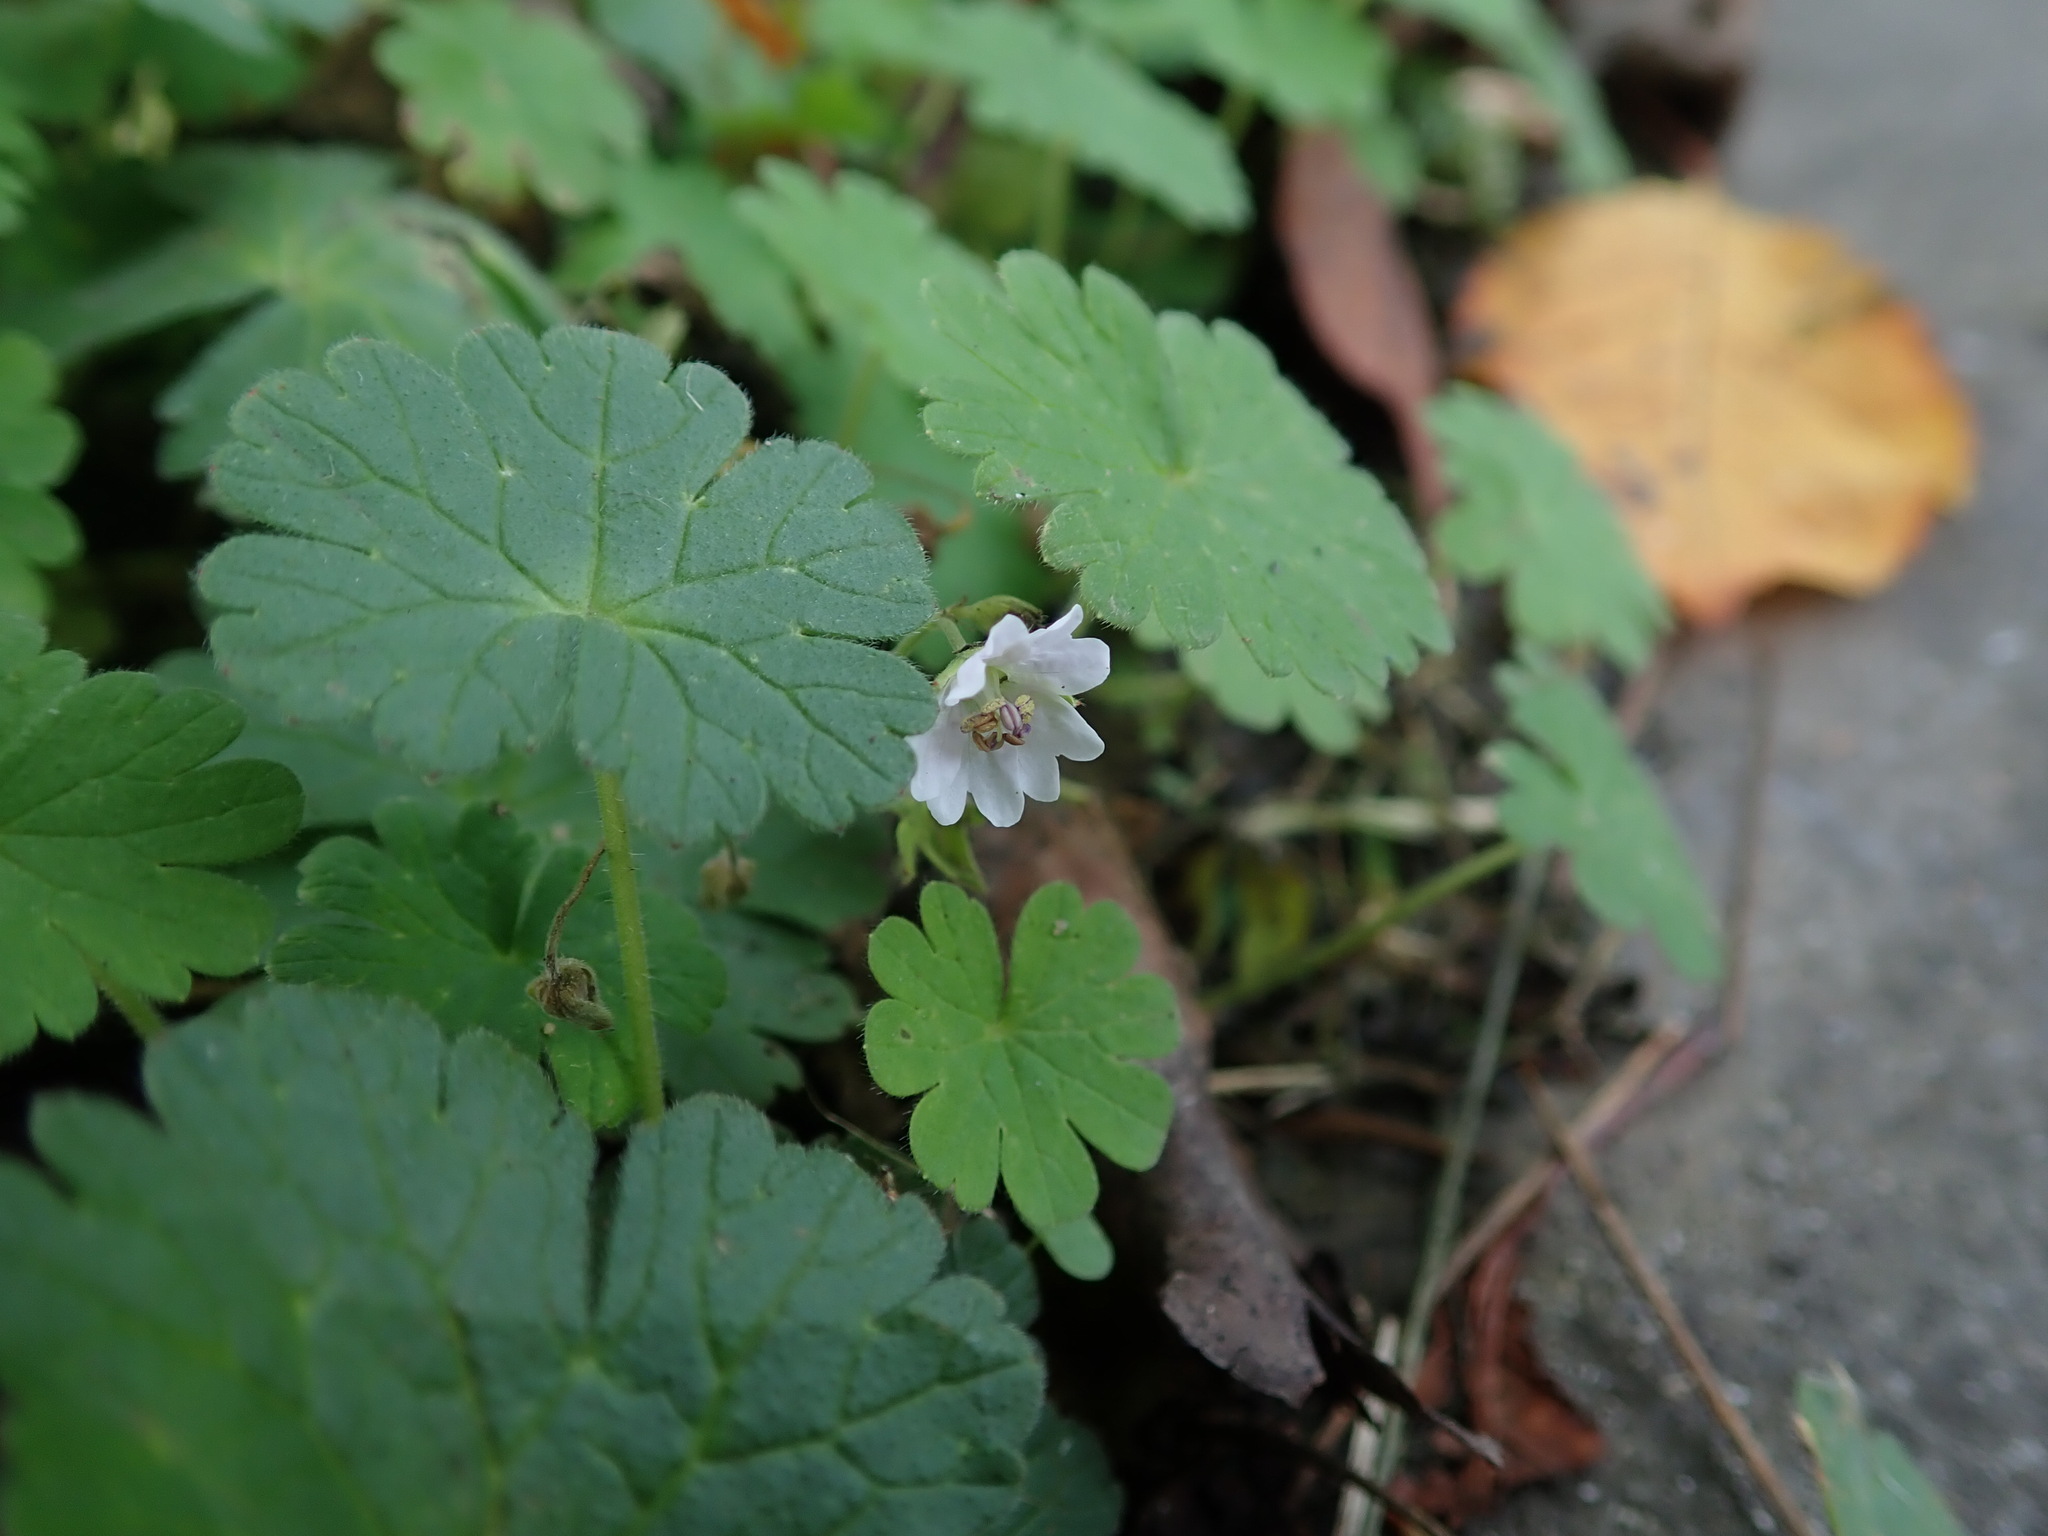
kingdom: Plantae
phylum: Tracheophyta
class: Magnoliopsida
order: Geraniales
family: Geraniaceae
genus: Geranium
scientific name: Geranium pyrenaicum
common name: Hedgerow crane's-bill
